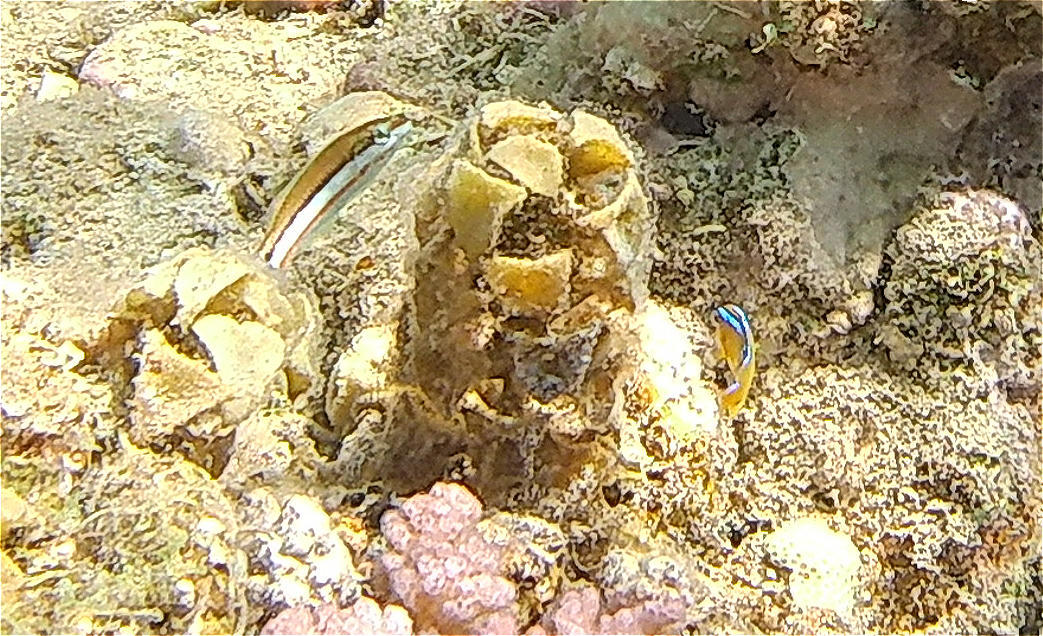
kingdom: Animalia
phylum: Chordata
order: Perciformes
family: Labridae
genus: Thalassoma
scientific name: Thalassoma rueppellii
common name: Klunzinger's wrasse
